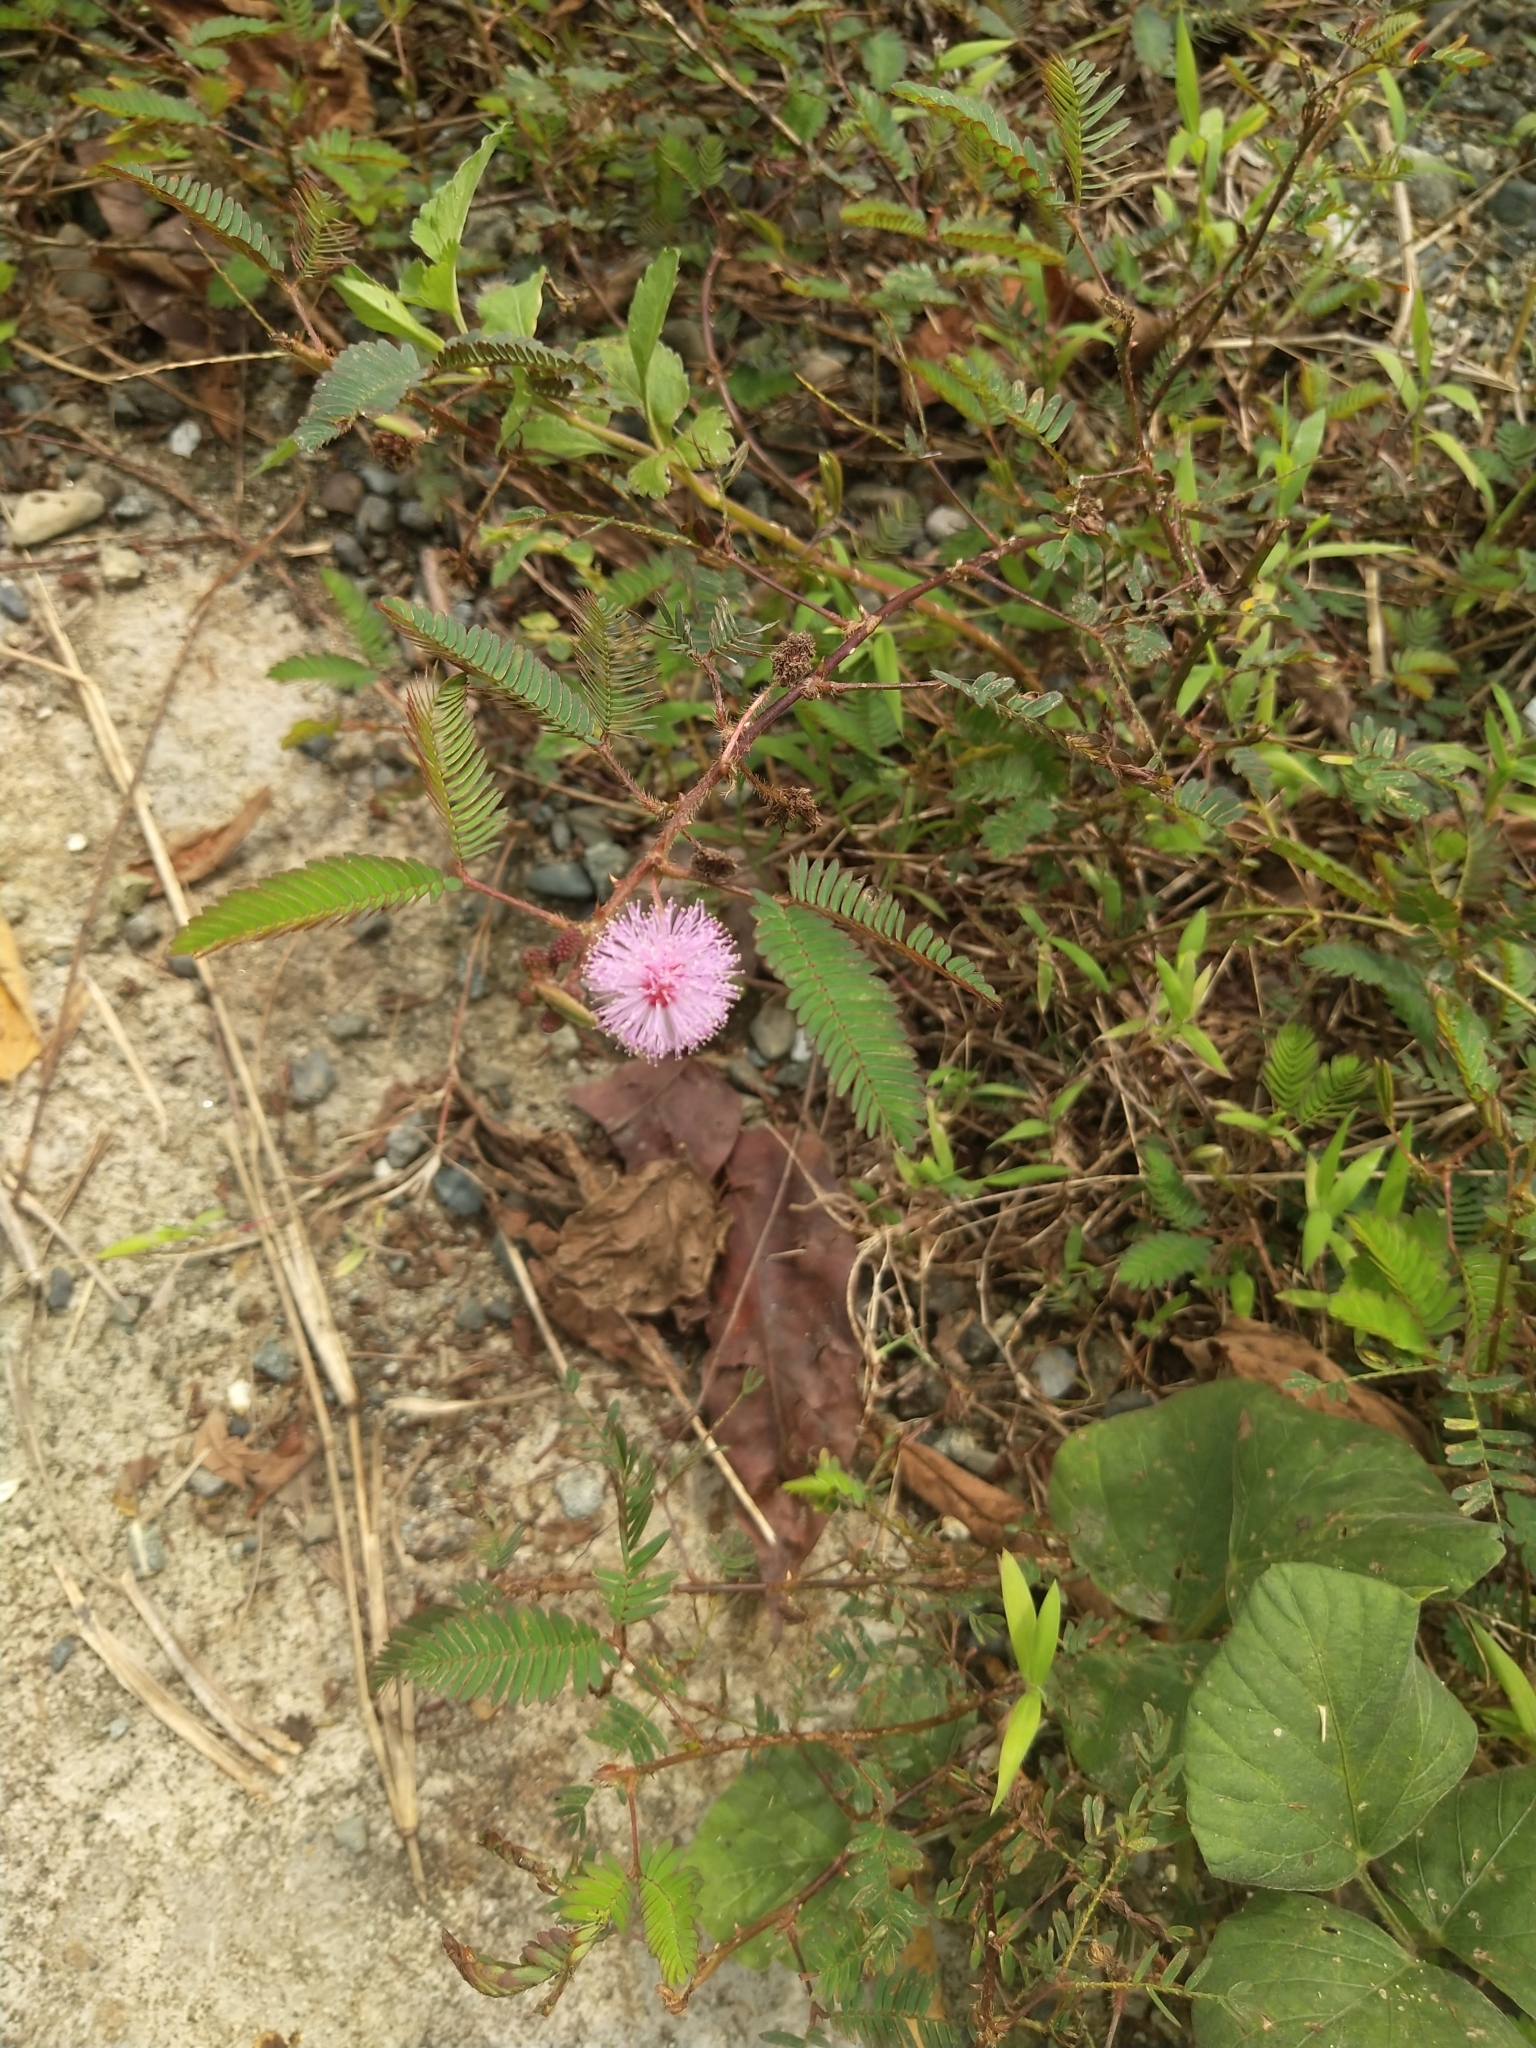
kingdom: Plantae
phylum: Tracheophyta
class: Magnoliopsida
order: Fabales
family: Fabaceae
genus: Mimosa
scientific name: Mimosa pudica
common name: Sensitive plant
